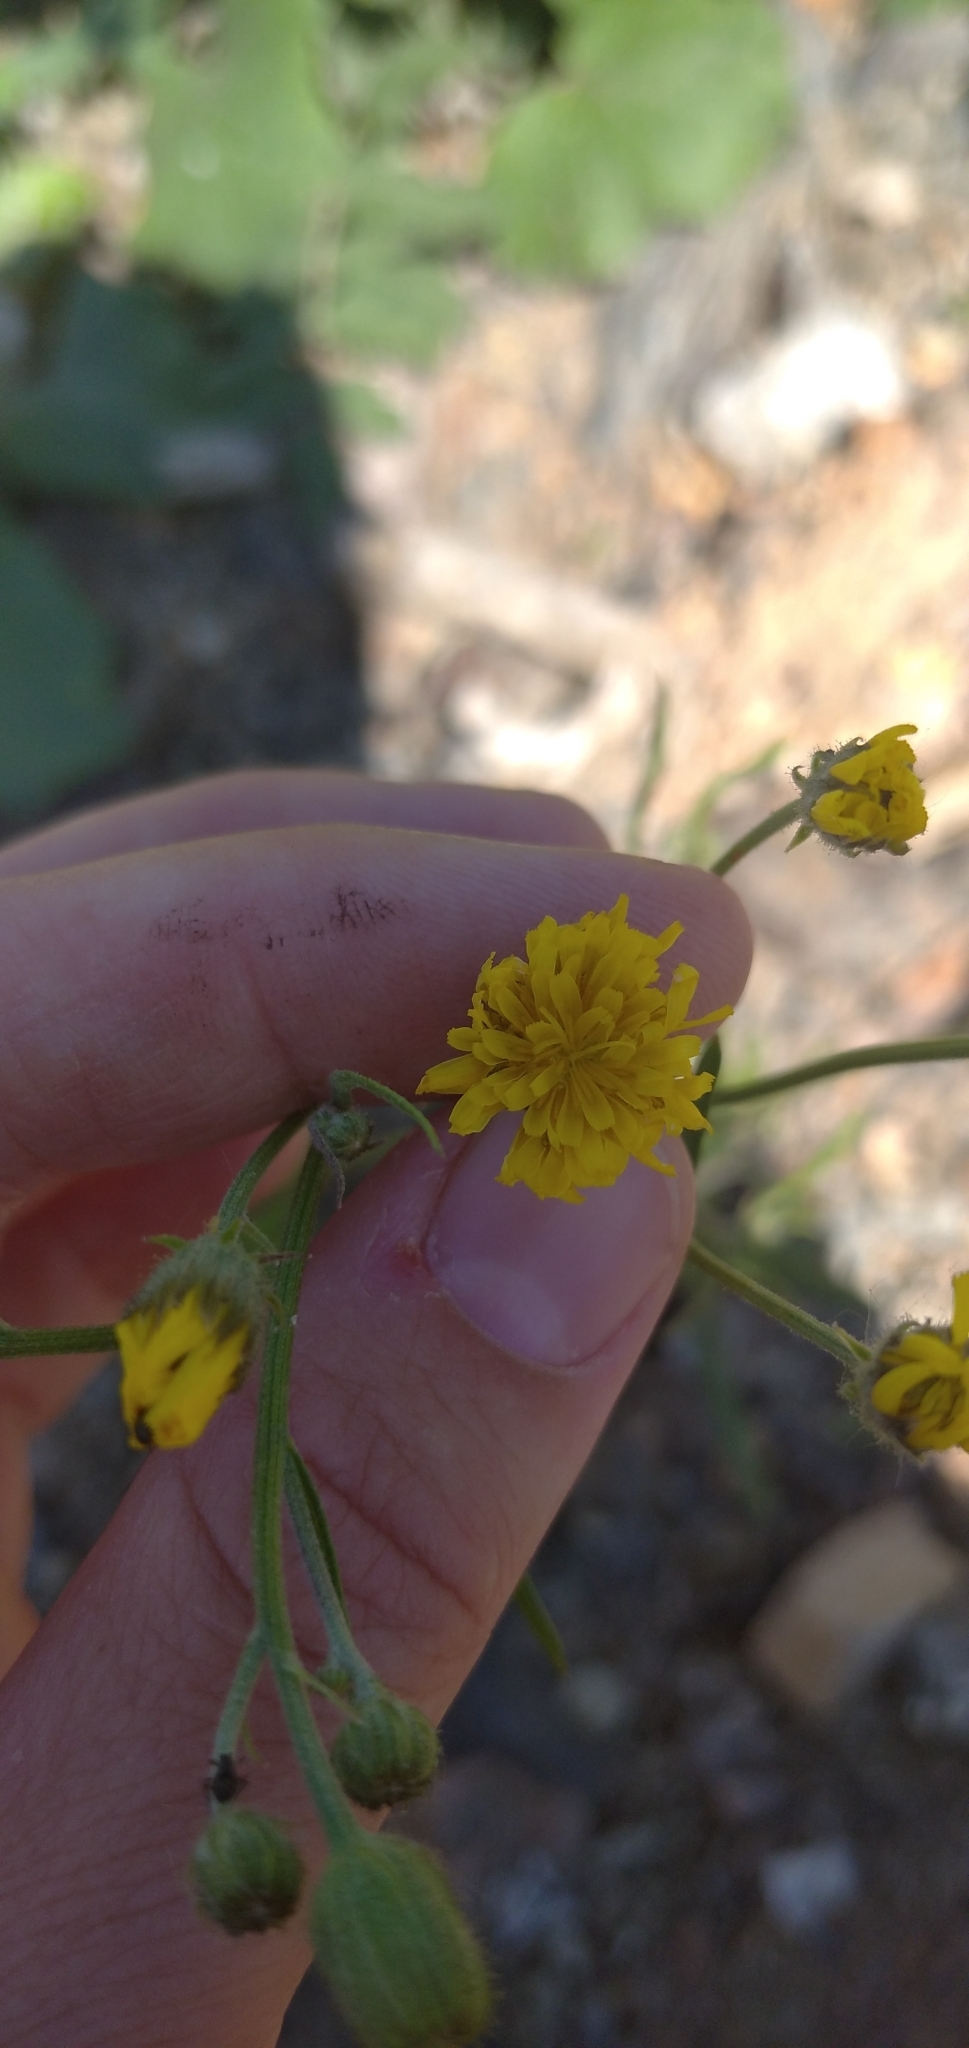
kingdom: Plantae
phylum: Tracheophyta
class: Magnoliopsida
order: Asterales
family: Asteraceae
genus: Crepis
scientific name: Crepis tectorum
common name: Narrow-leaved hawk's-beard
